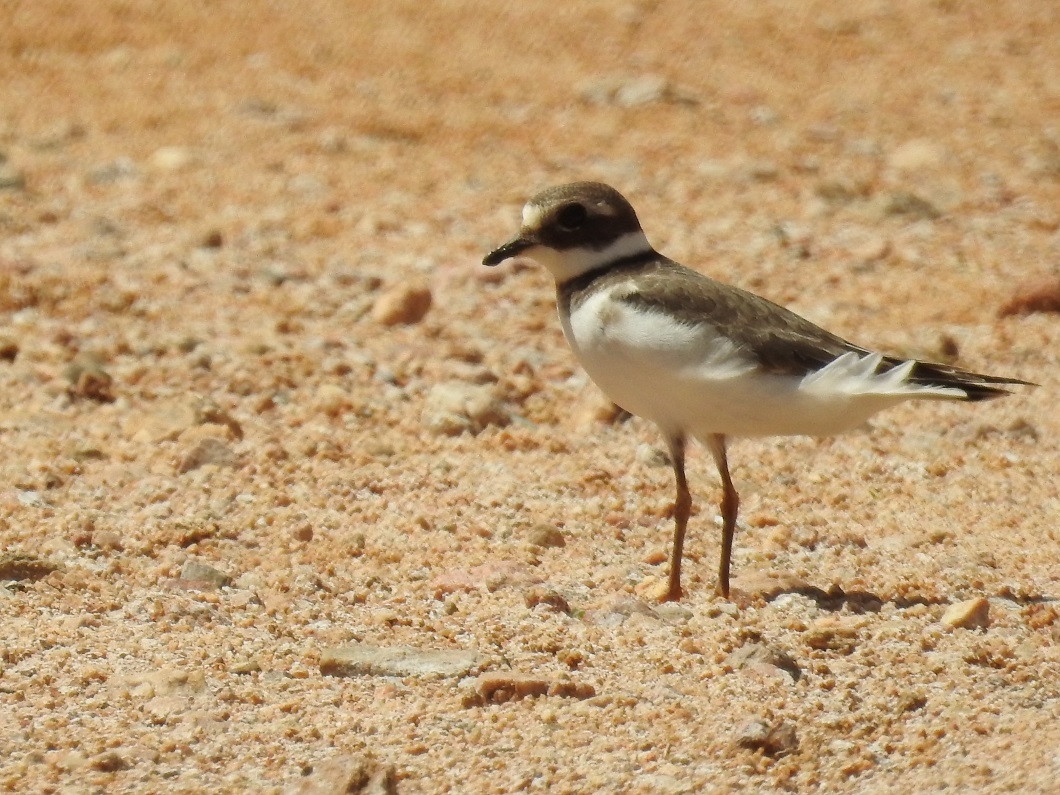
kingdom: Animalia
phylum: Chordata
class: Aves
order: Charadriiformes
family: Charadriidae
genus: Charadrius
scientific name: Charadrius hiaticula
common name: Common ringed plover
